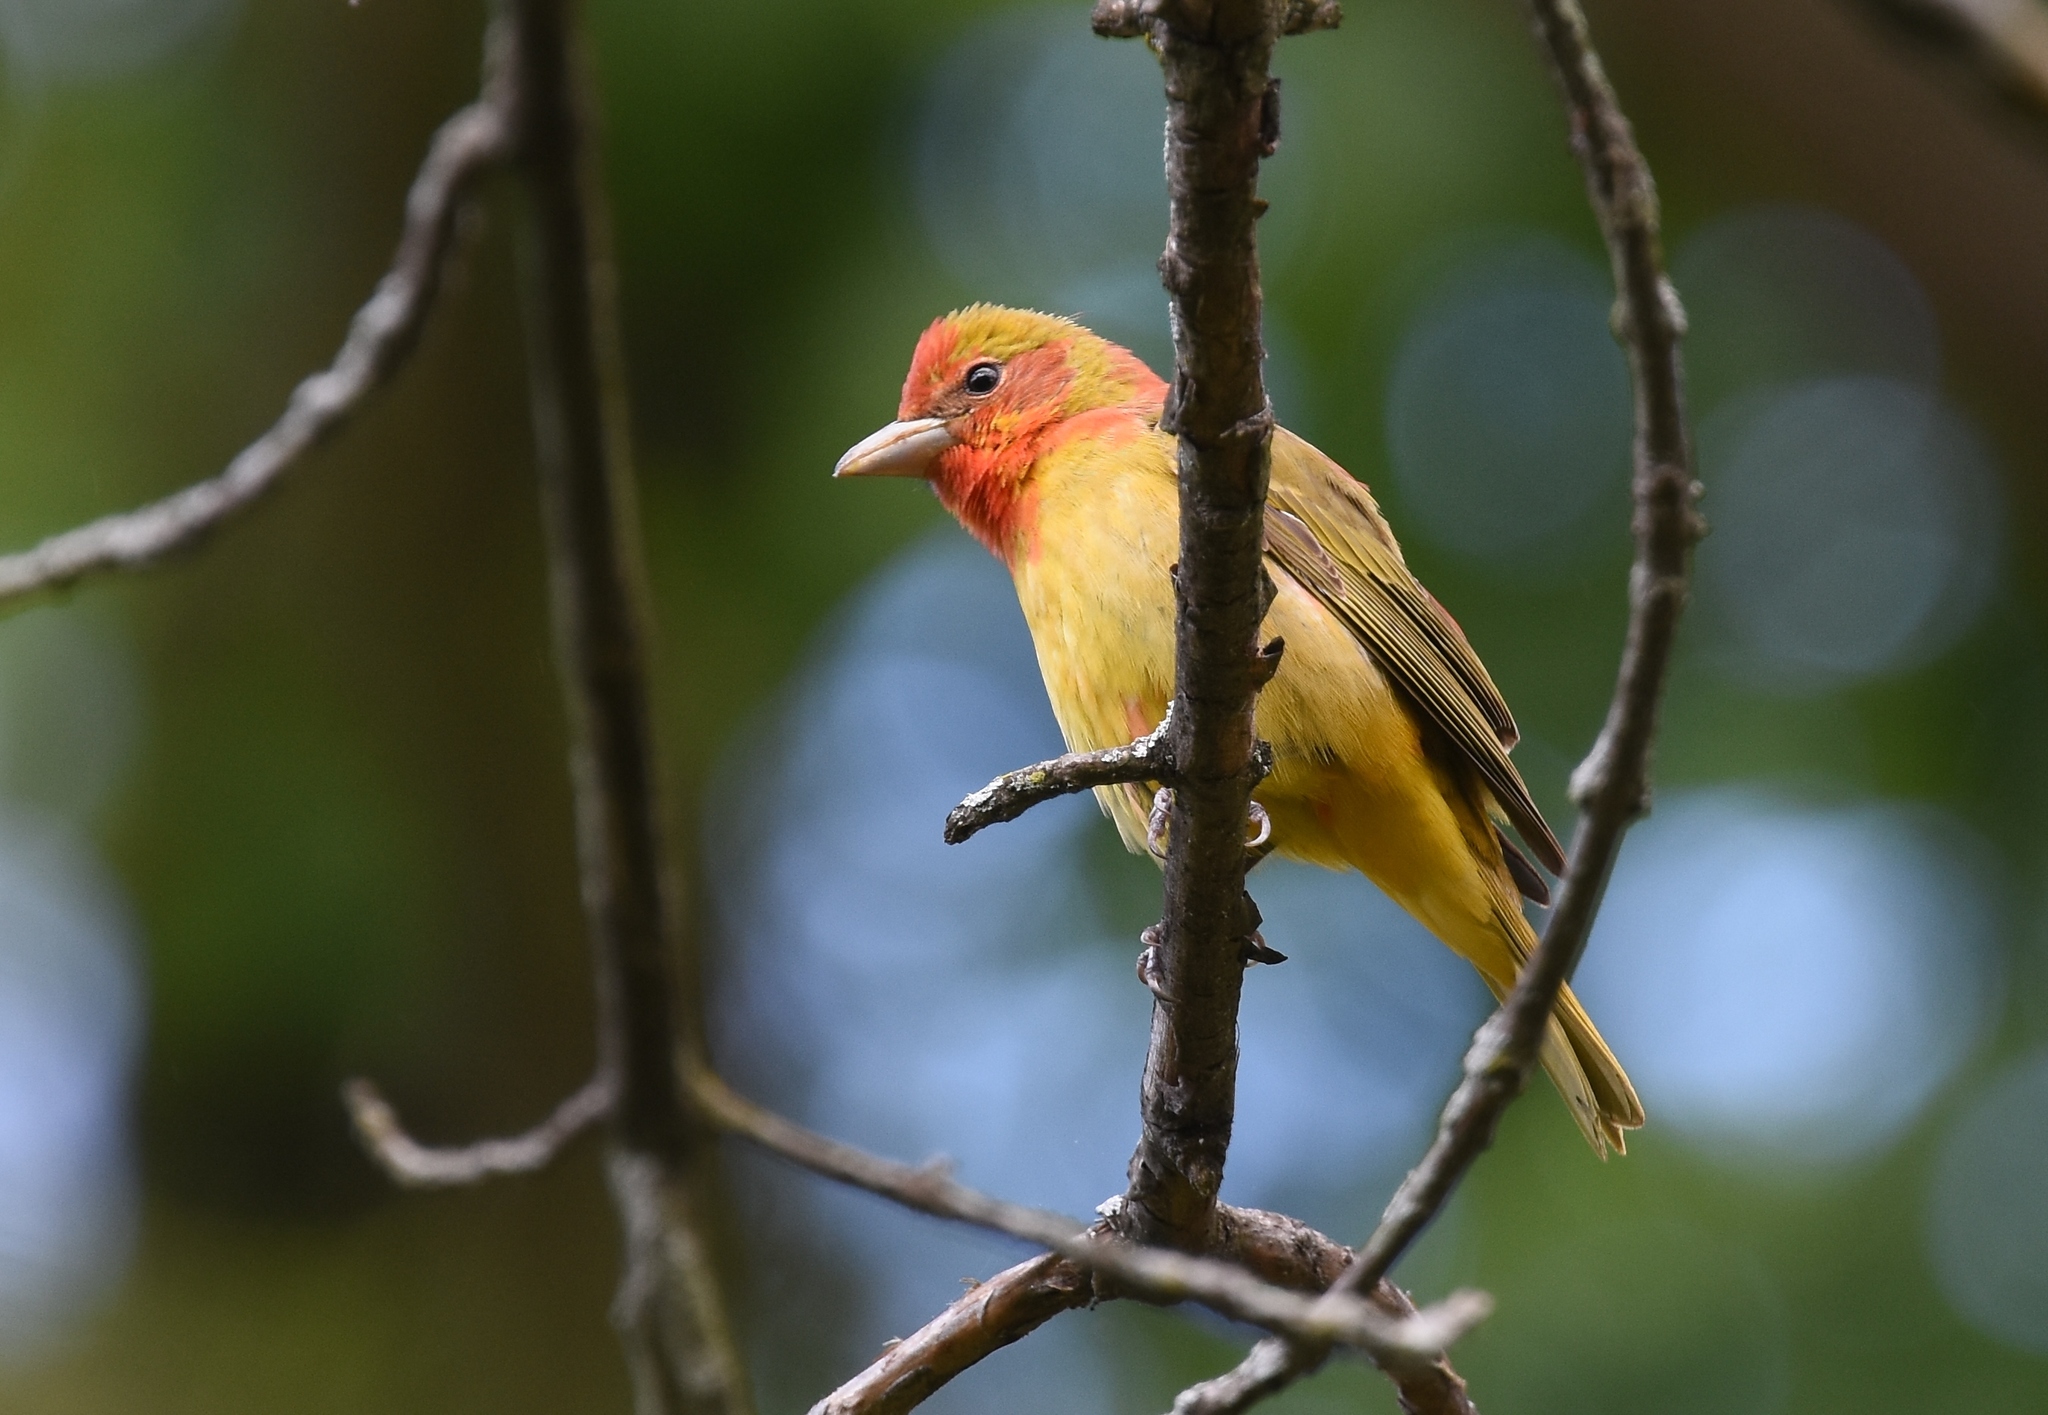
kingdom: Animalia
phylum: Chordata
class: Aves
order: Passeriformes
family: Cardinalidae
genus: Piranga
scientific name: Piranga rubra
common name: Summer tanager
